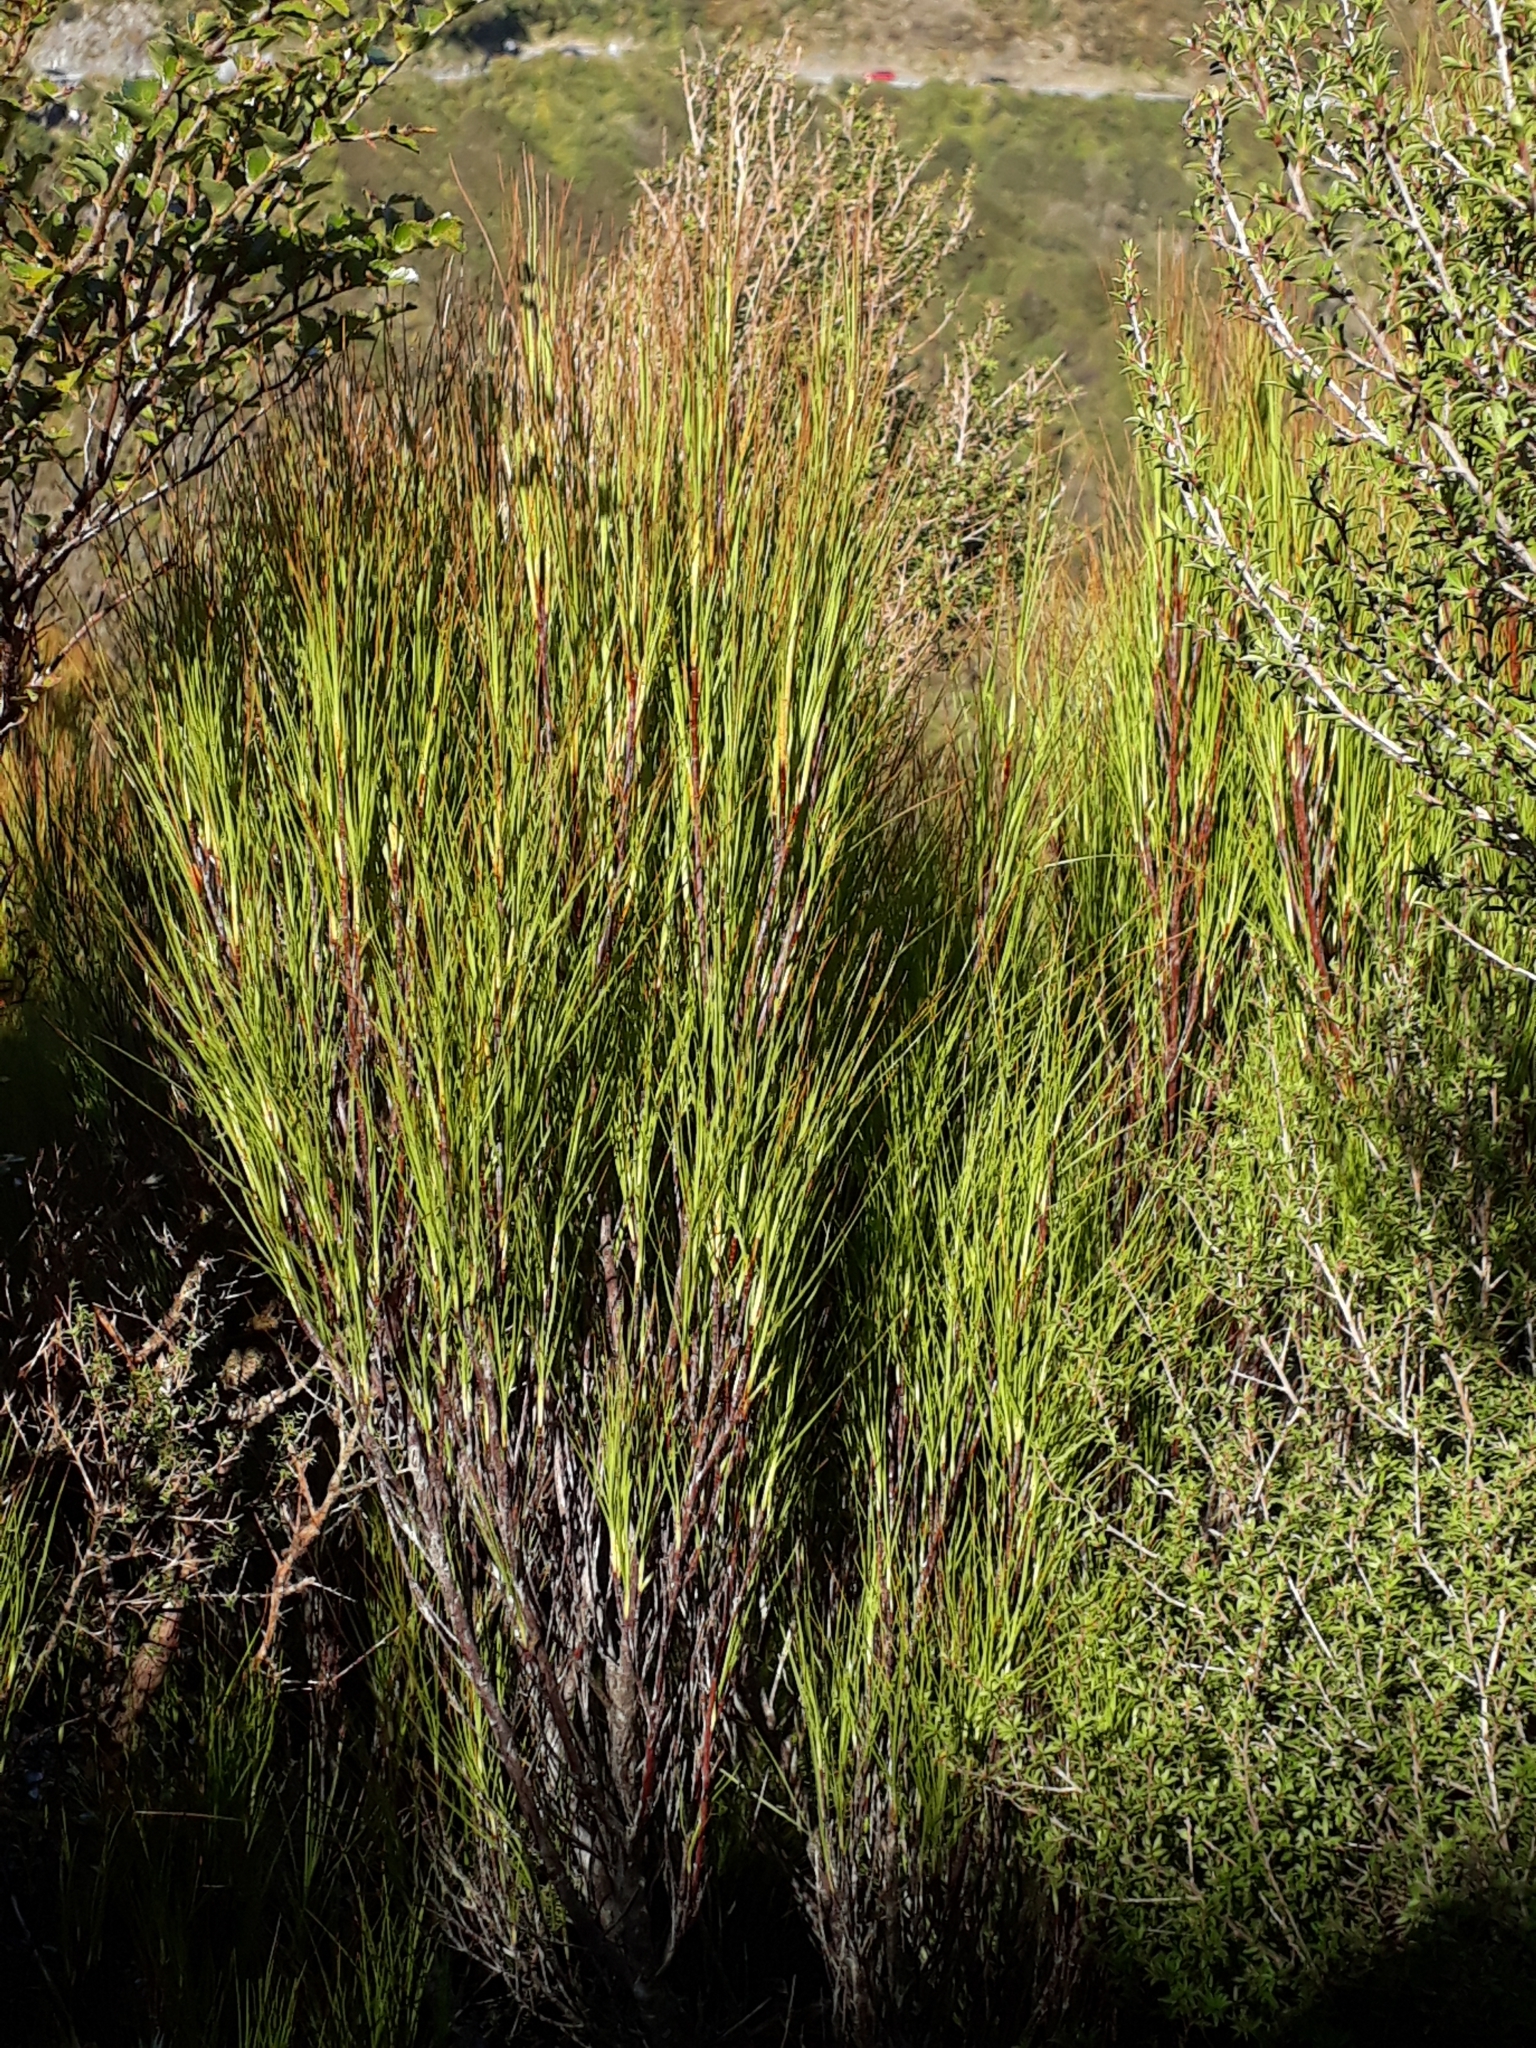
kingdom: Plantae
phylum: Tracheophyta
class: Magnoliopsida
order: Ericales
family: Ericaceae
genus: Dracophyllum
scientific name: Dracophyllum filifolium
